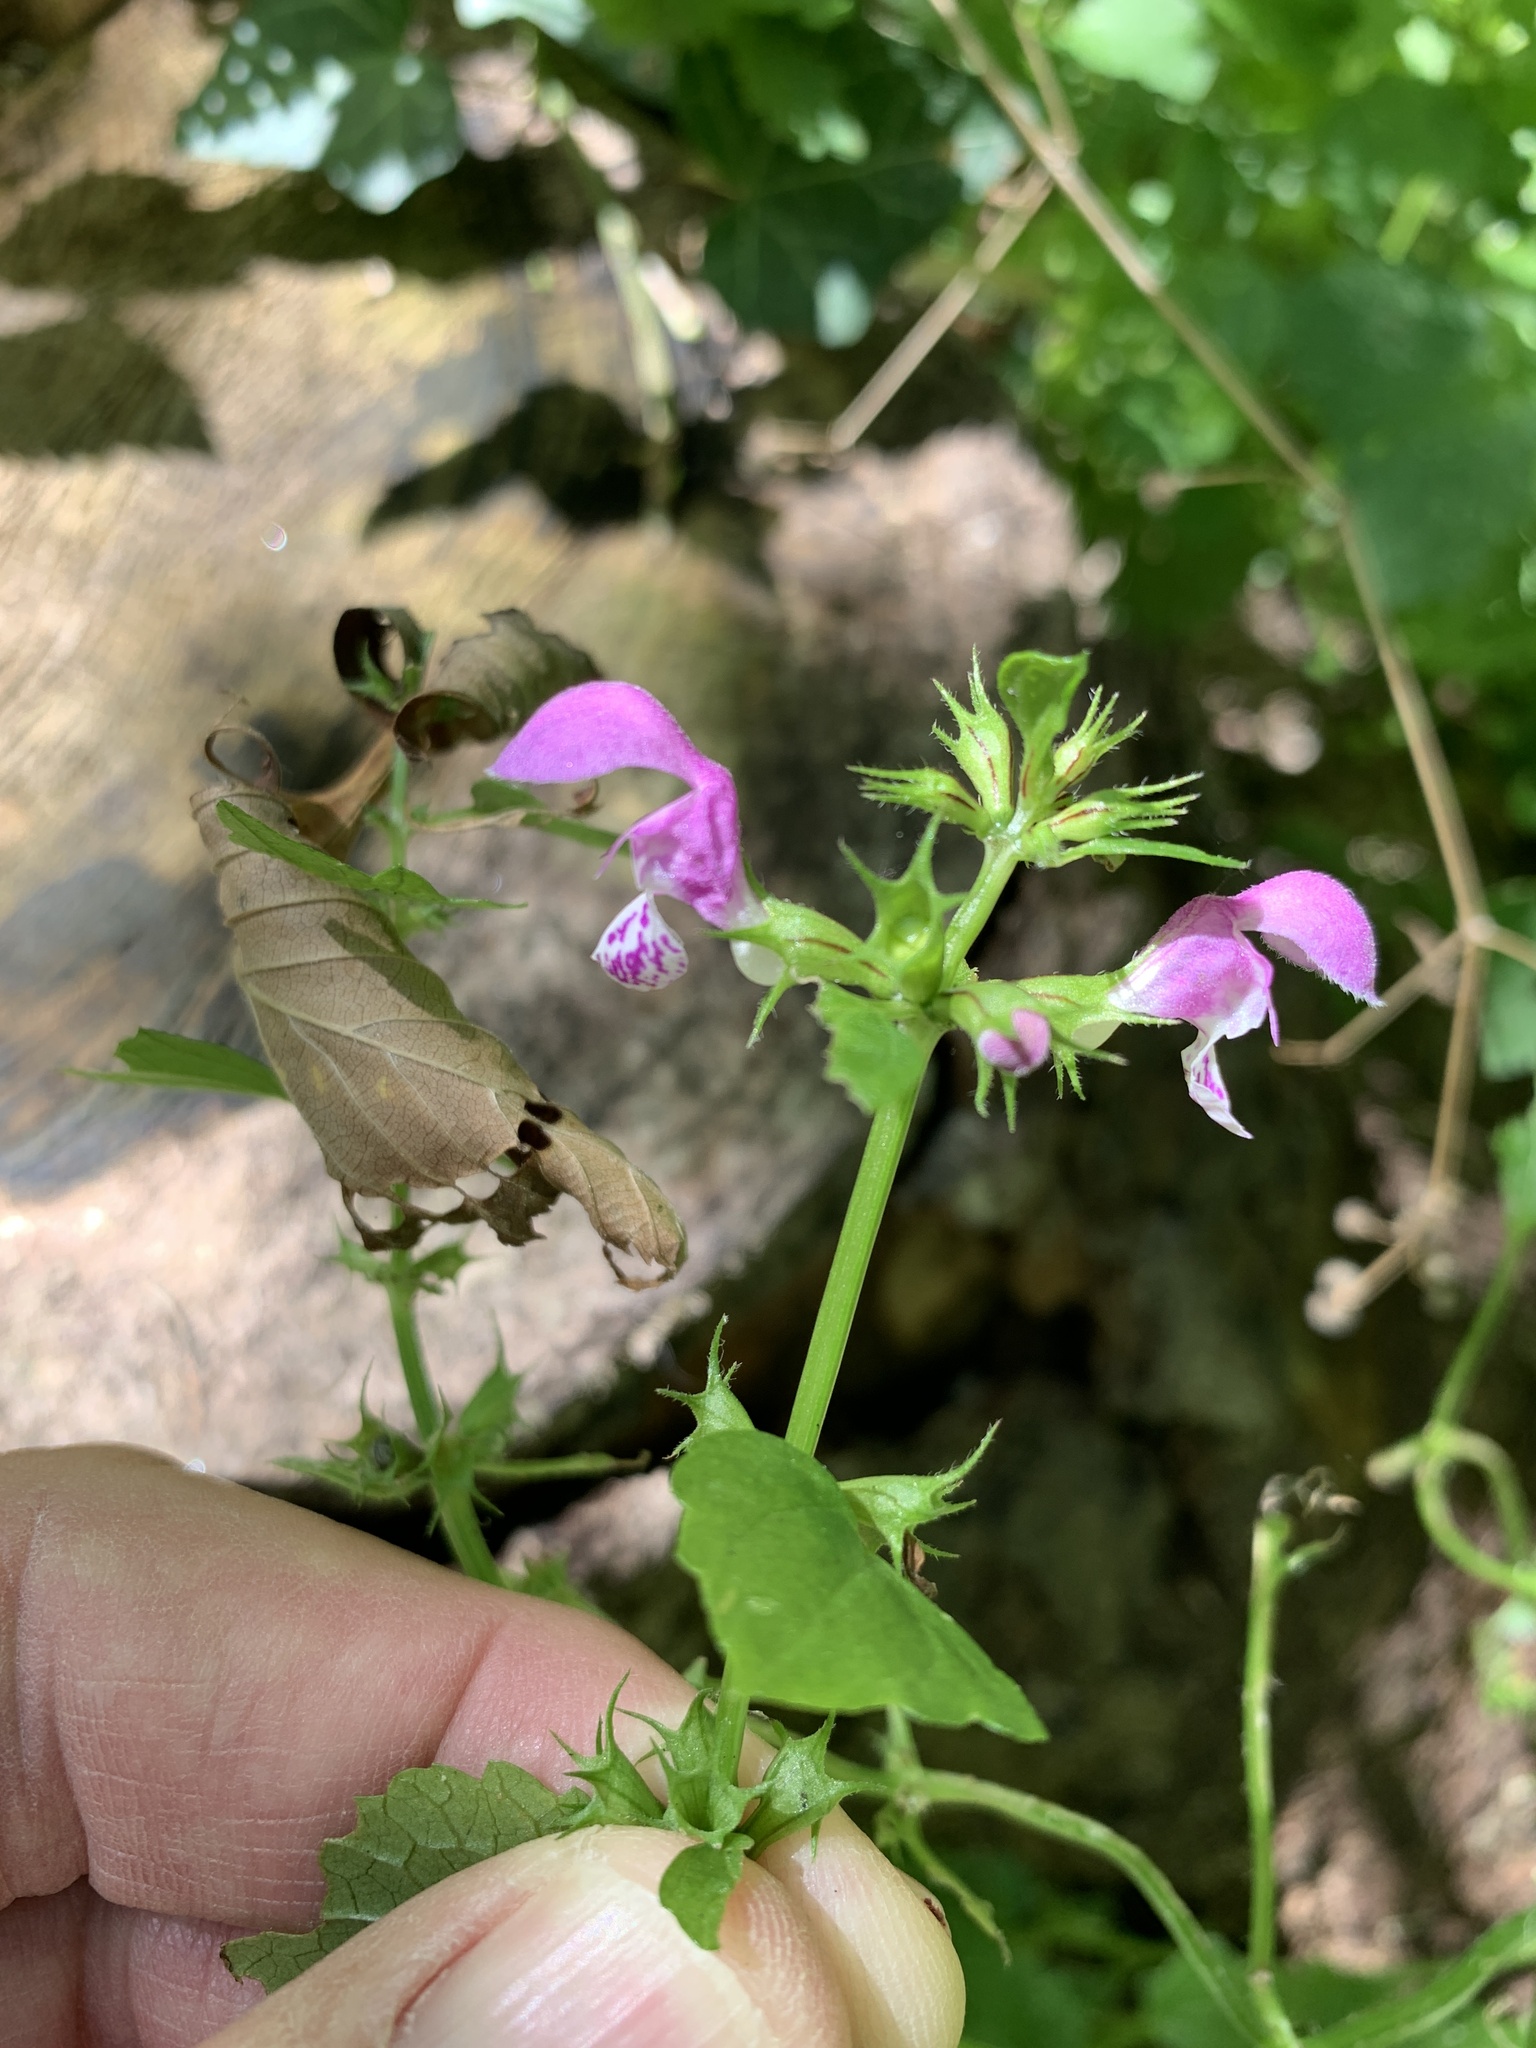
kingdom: Plantae
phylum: Tracheophyta
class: Magnoliopsida
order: Lamiales
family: Lamiaceae
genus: Lamium
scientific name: Lamium maculatum
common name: Spotted dead-nettle
